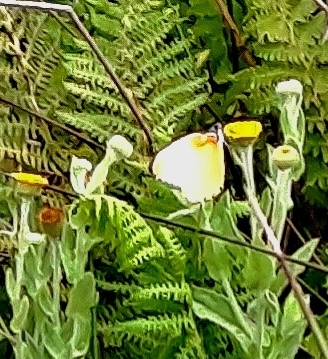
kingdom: Animalia
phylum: Arthropoda
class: Insecta
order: Lepidoptera
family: Pieridae
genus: Mylothris
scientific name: Mylothris agathina
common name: Eastern dotted border
